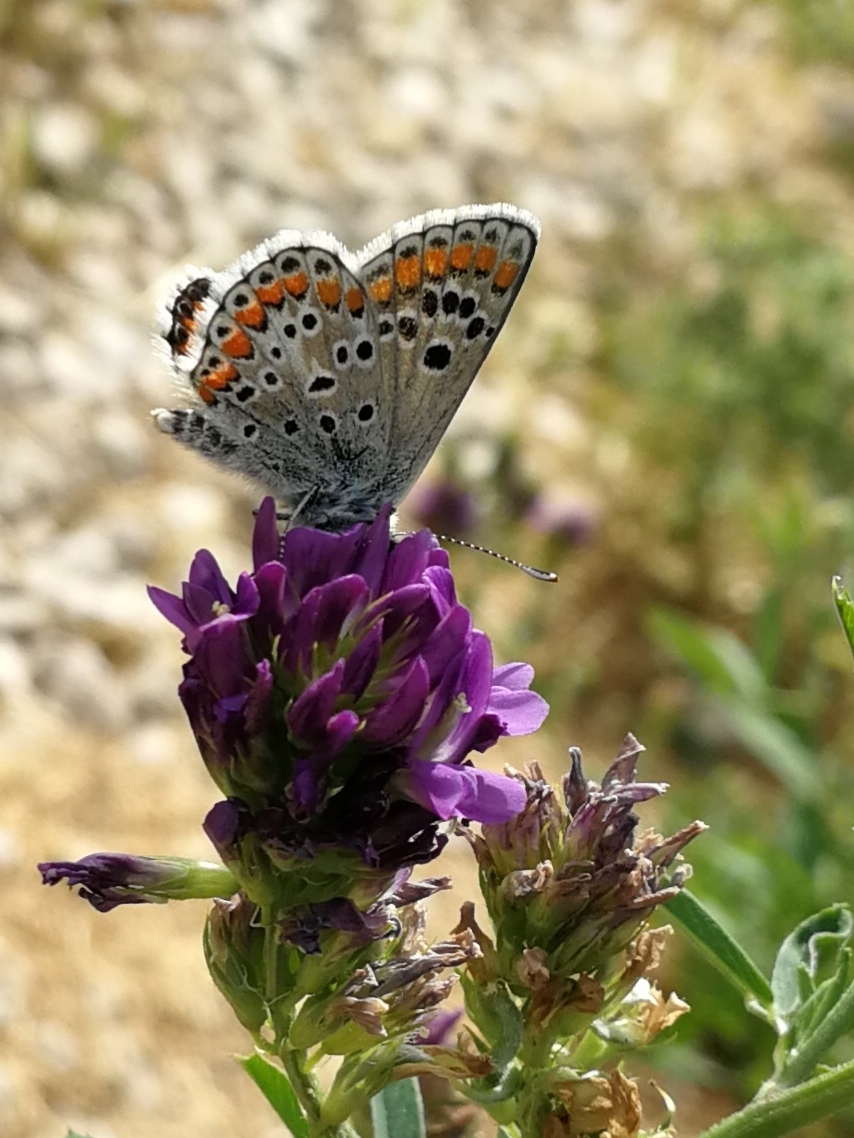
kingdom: Animalia
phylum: Arthropoda
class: Insecta
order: Lepidoptera
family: Lycaenidae
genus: Aricia
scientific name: Aricia cramera
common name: Eschscholtz´s brown  argus
